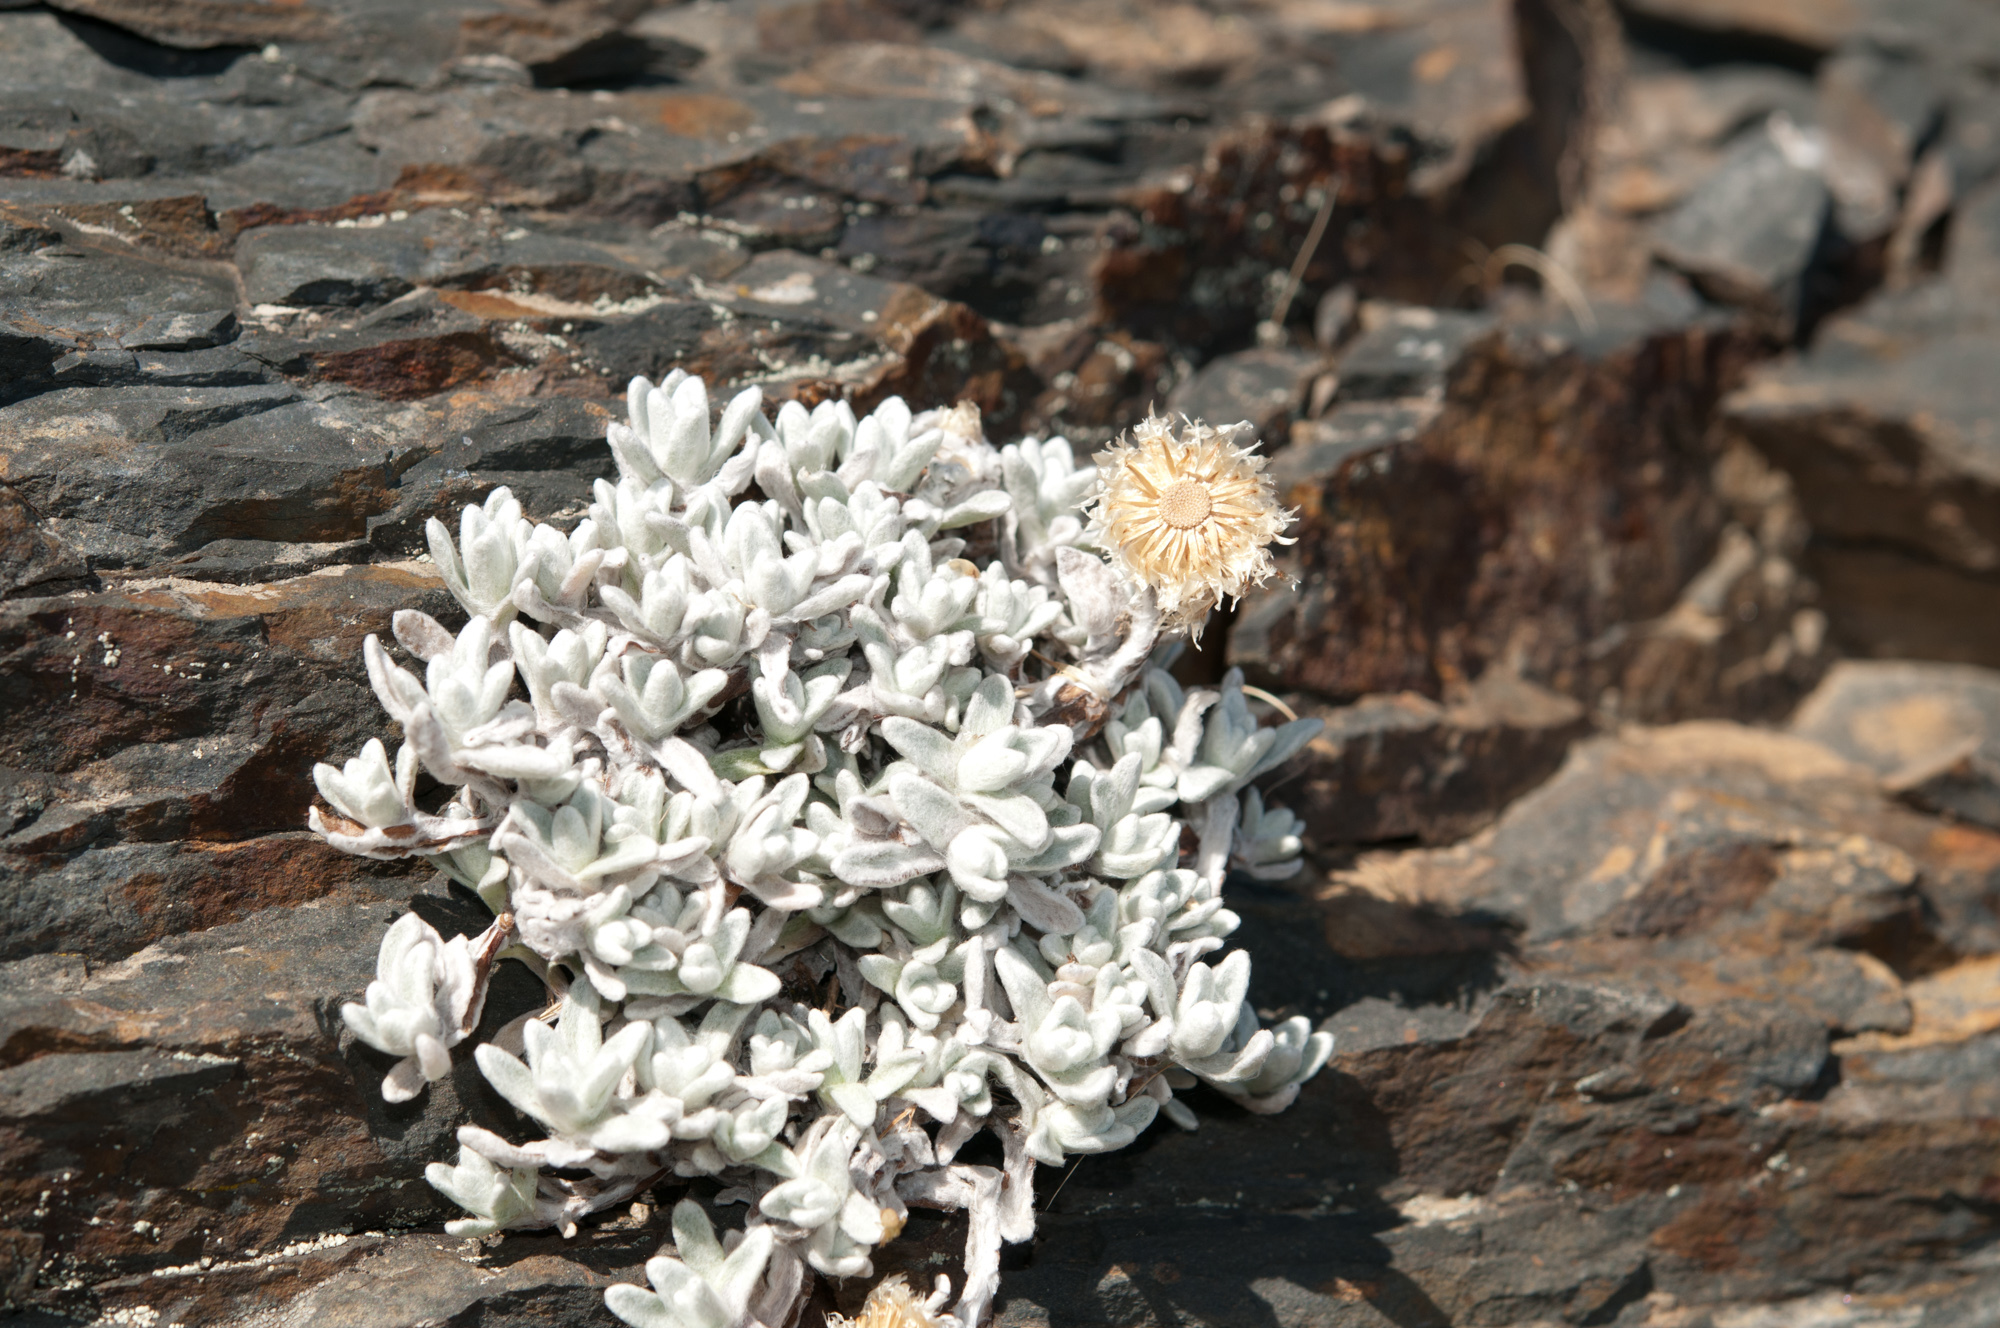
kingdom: Plantae
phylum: Tracheophyta
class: Magnoliopsida
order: Asterales
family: Asteraceae
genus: Anaphalis
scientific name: Anaphalis nepalensis
